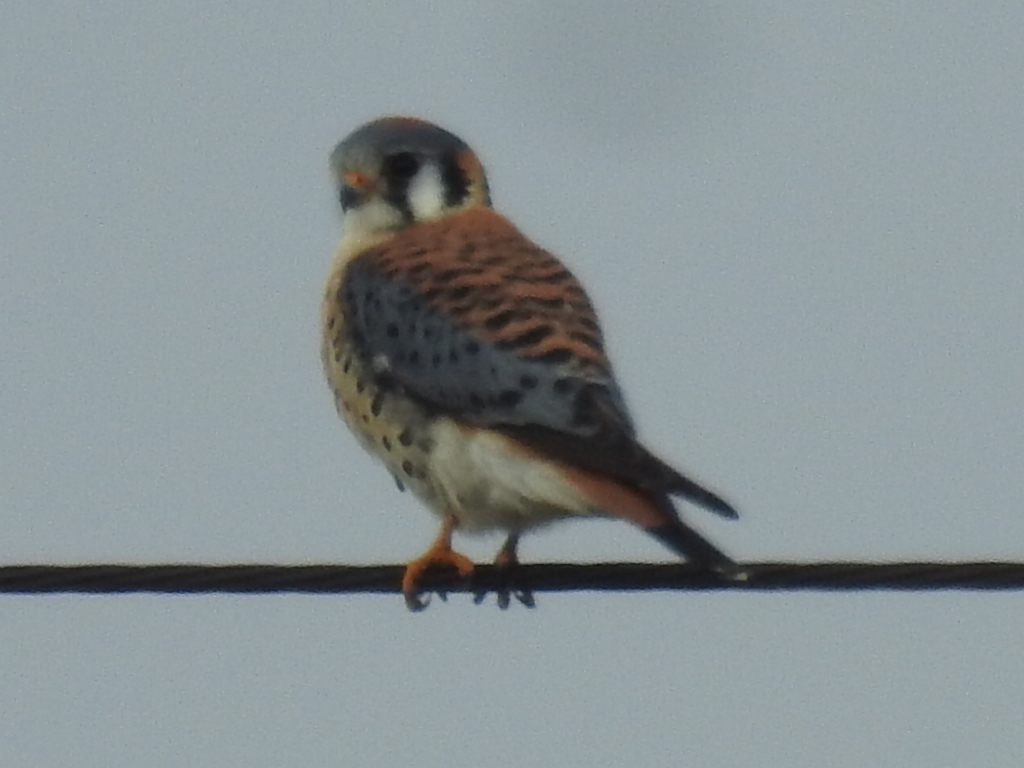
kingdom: Animalia
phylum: Chordata
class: Aves
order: Falconiformes
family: Falconidae
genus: Falco
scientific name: Falco sparverius
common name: American kestrel
